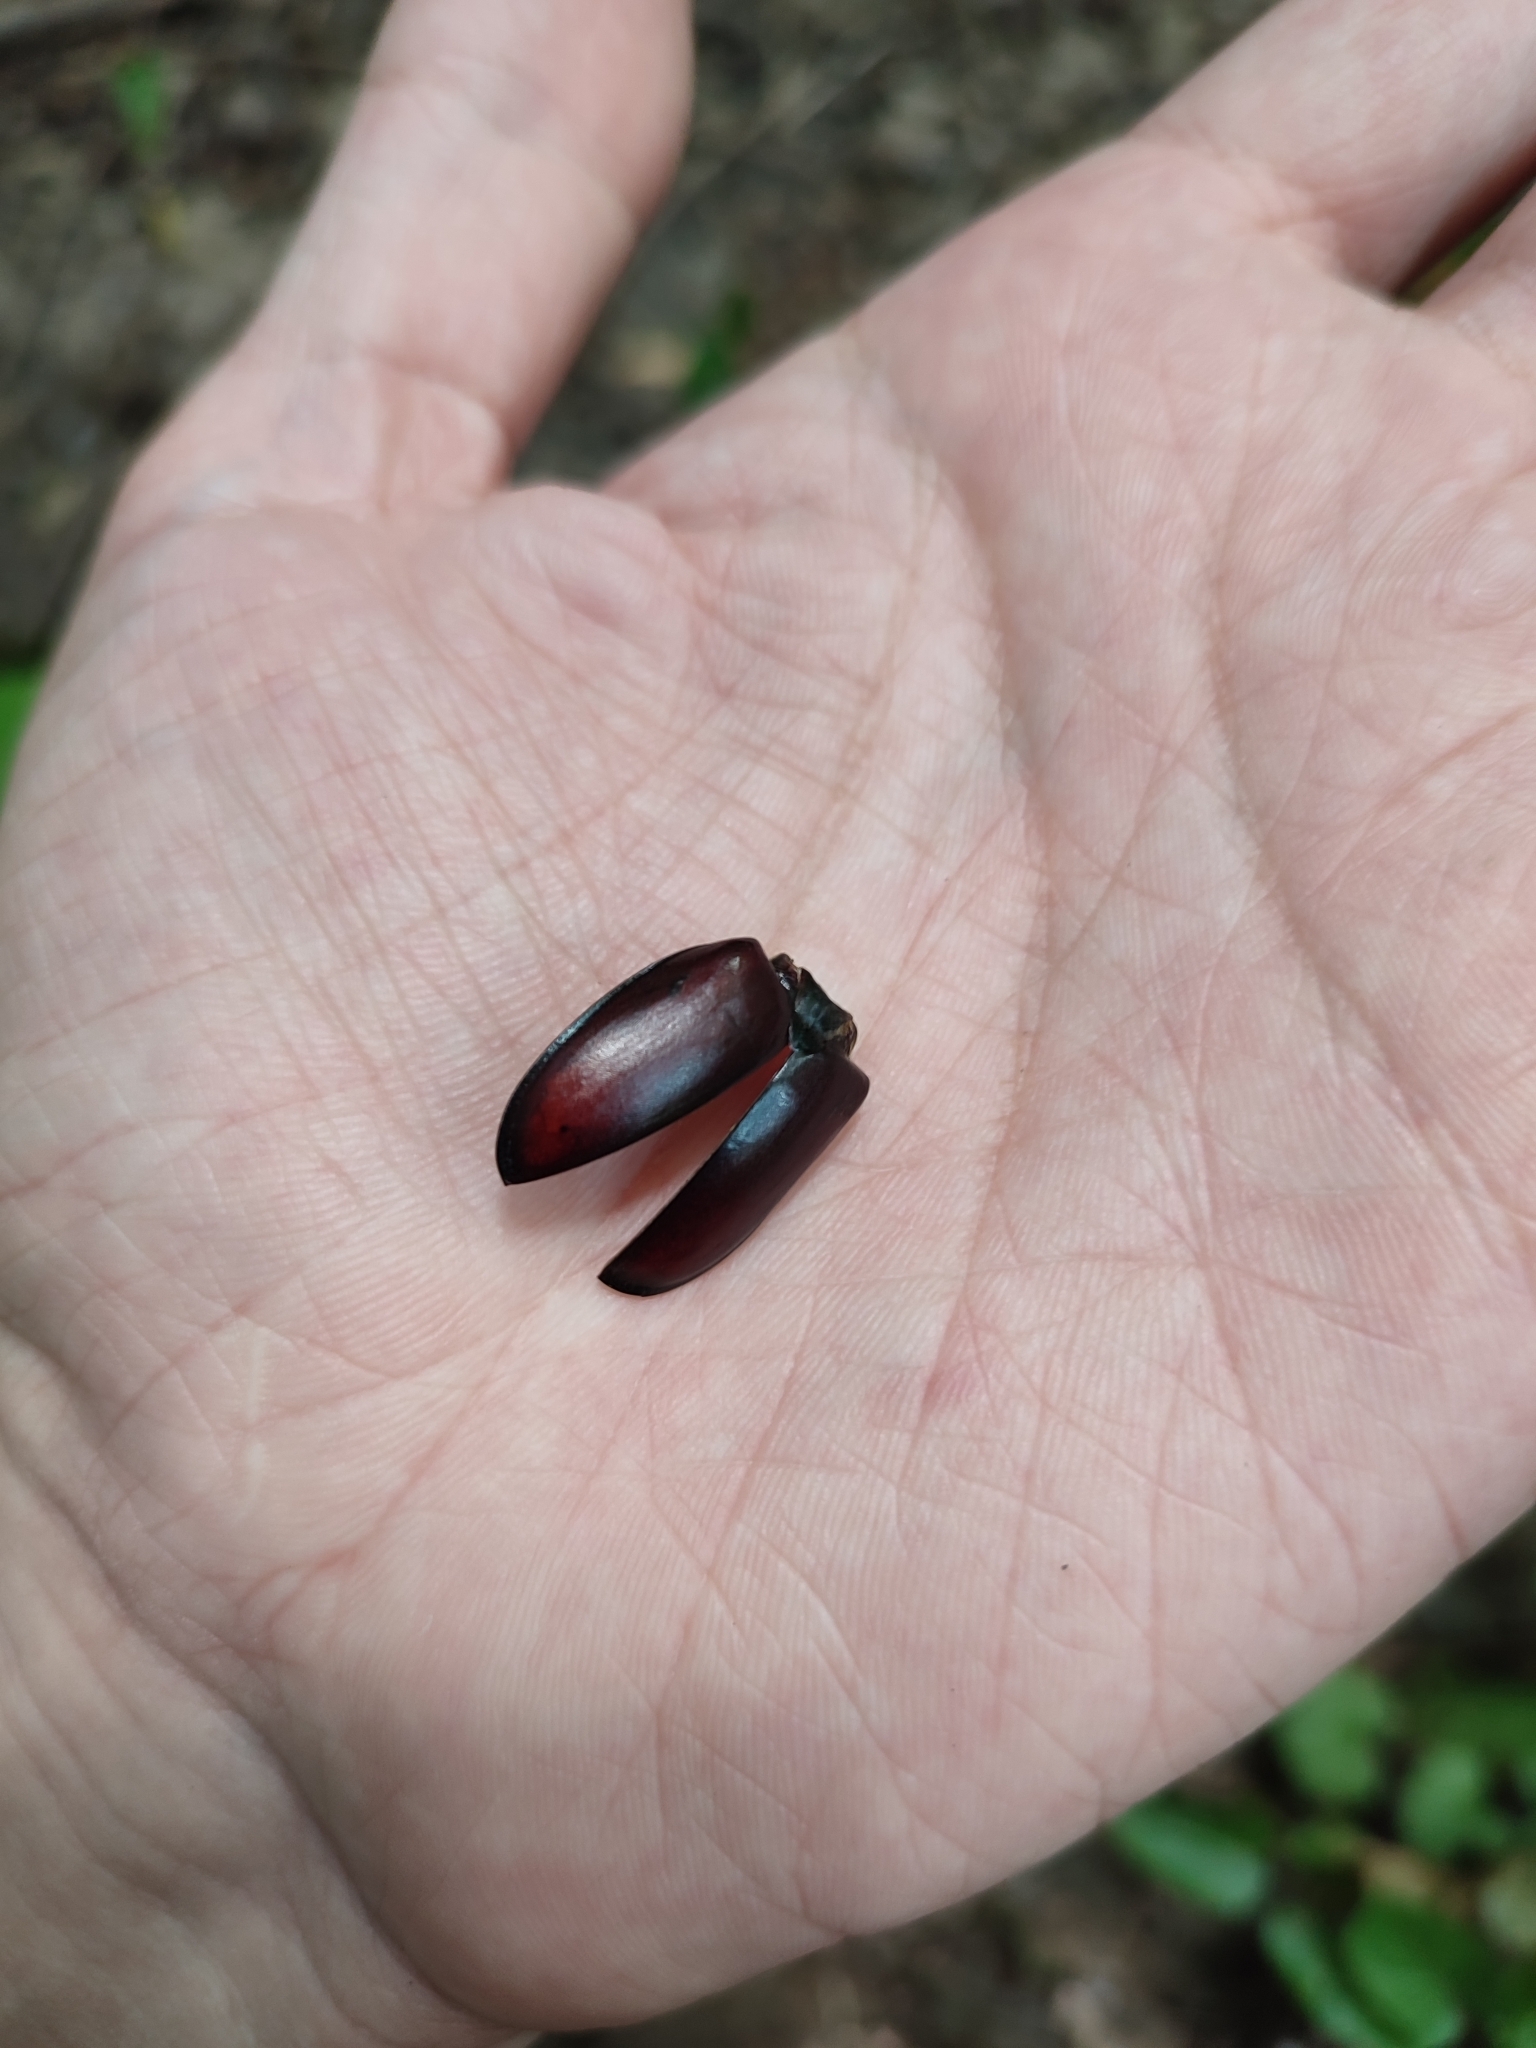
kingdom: Animalia
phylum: Arthropoda
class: Insecta
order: Coleoptera
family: Lucanidae
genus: Lucanus
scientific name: Lucanus cervus
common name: Stag beetle
